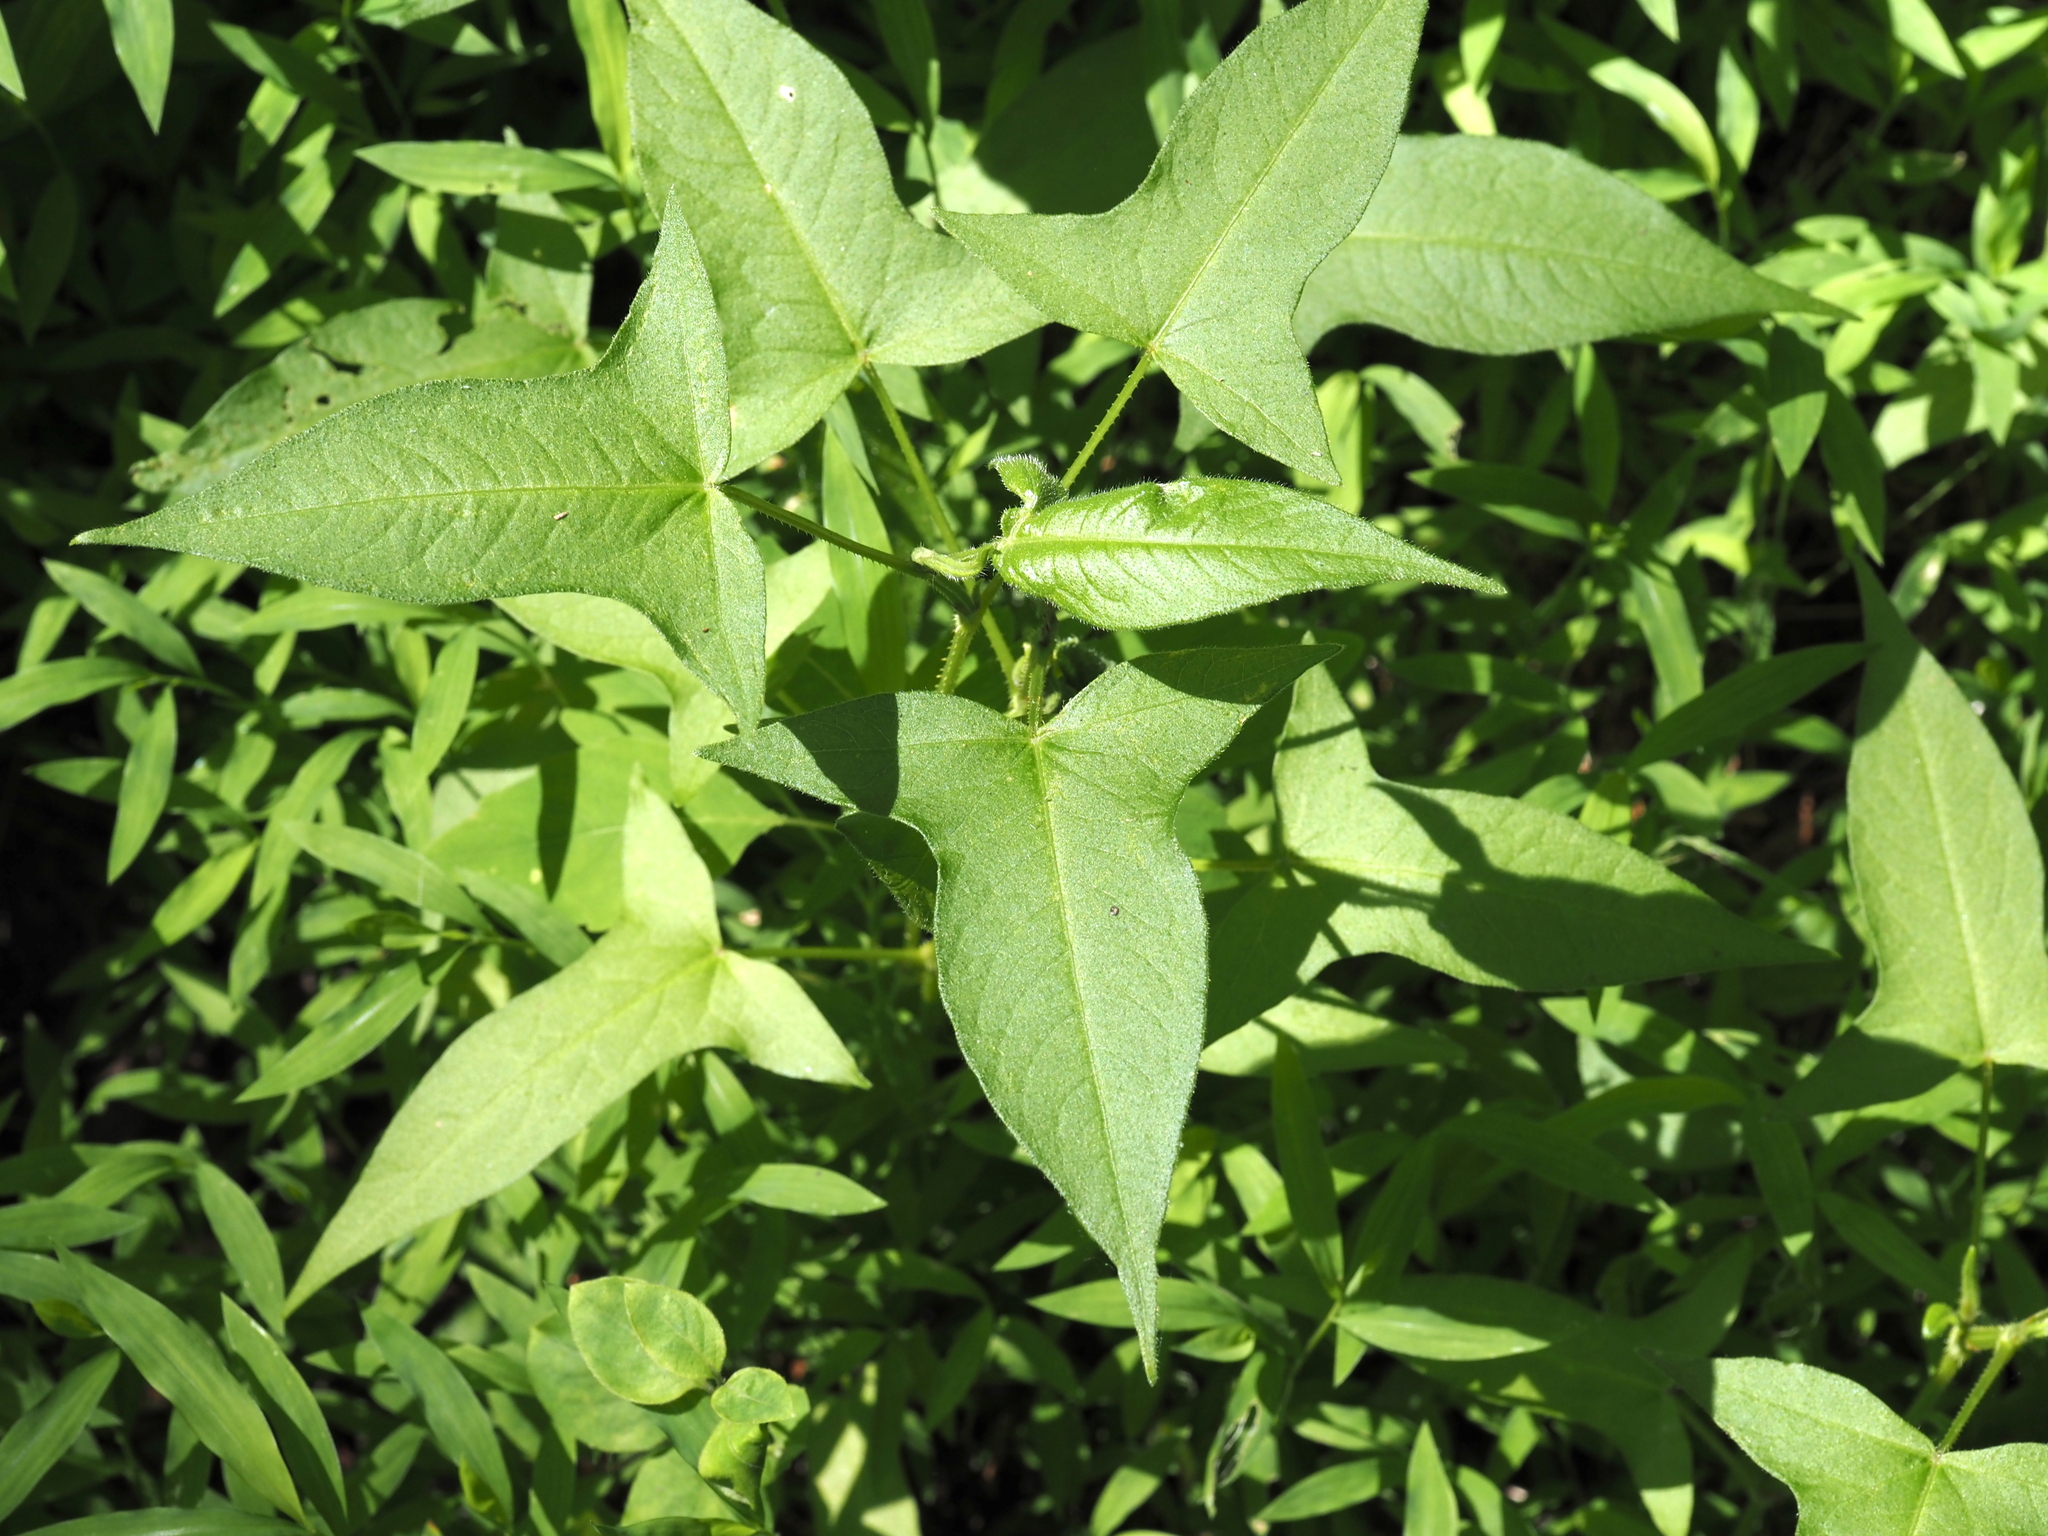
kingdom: Plantae
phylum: Tracheophyta
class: Magnoliopsida
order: Caryophyllales
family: Polygonaceae
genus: Persicaria
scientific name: Persicaria arifolia
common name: Halberd-leaved tear-thumb
